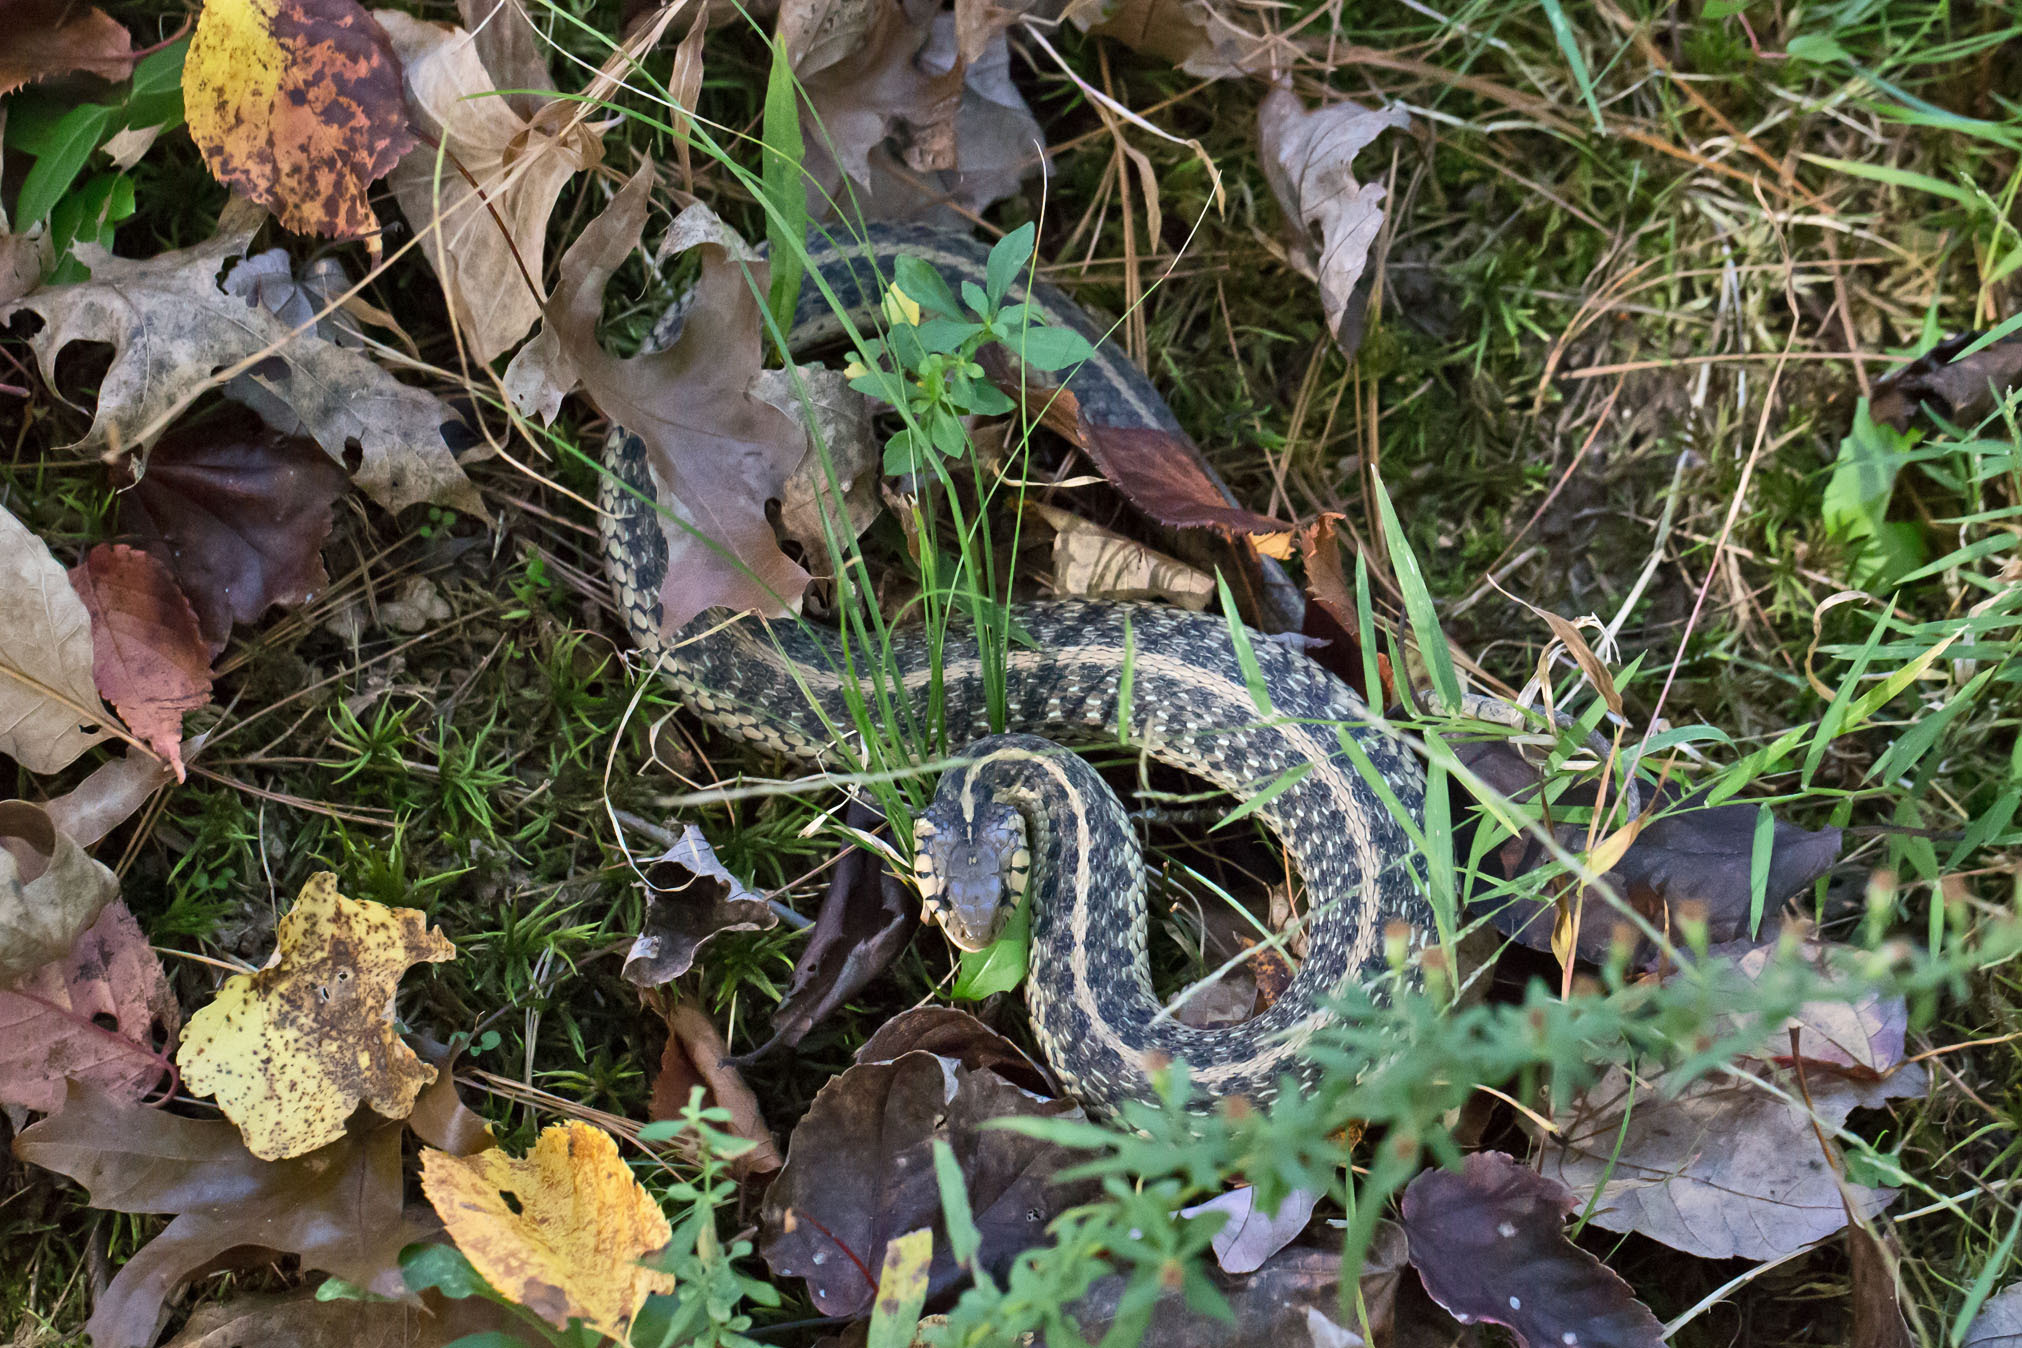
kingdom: Animalia
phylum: Chordata
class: Squamata
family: Colubridae
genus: Thamnophis
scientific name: Thamnophis sirtalis
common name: Common garter snake
